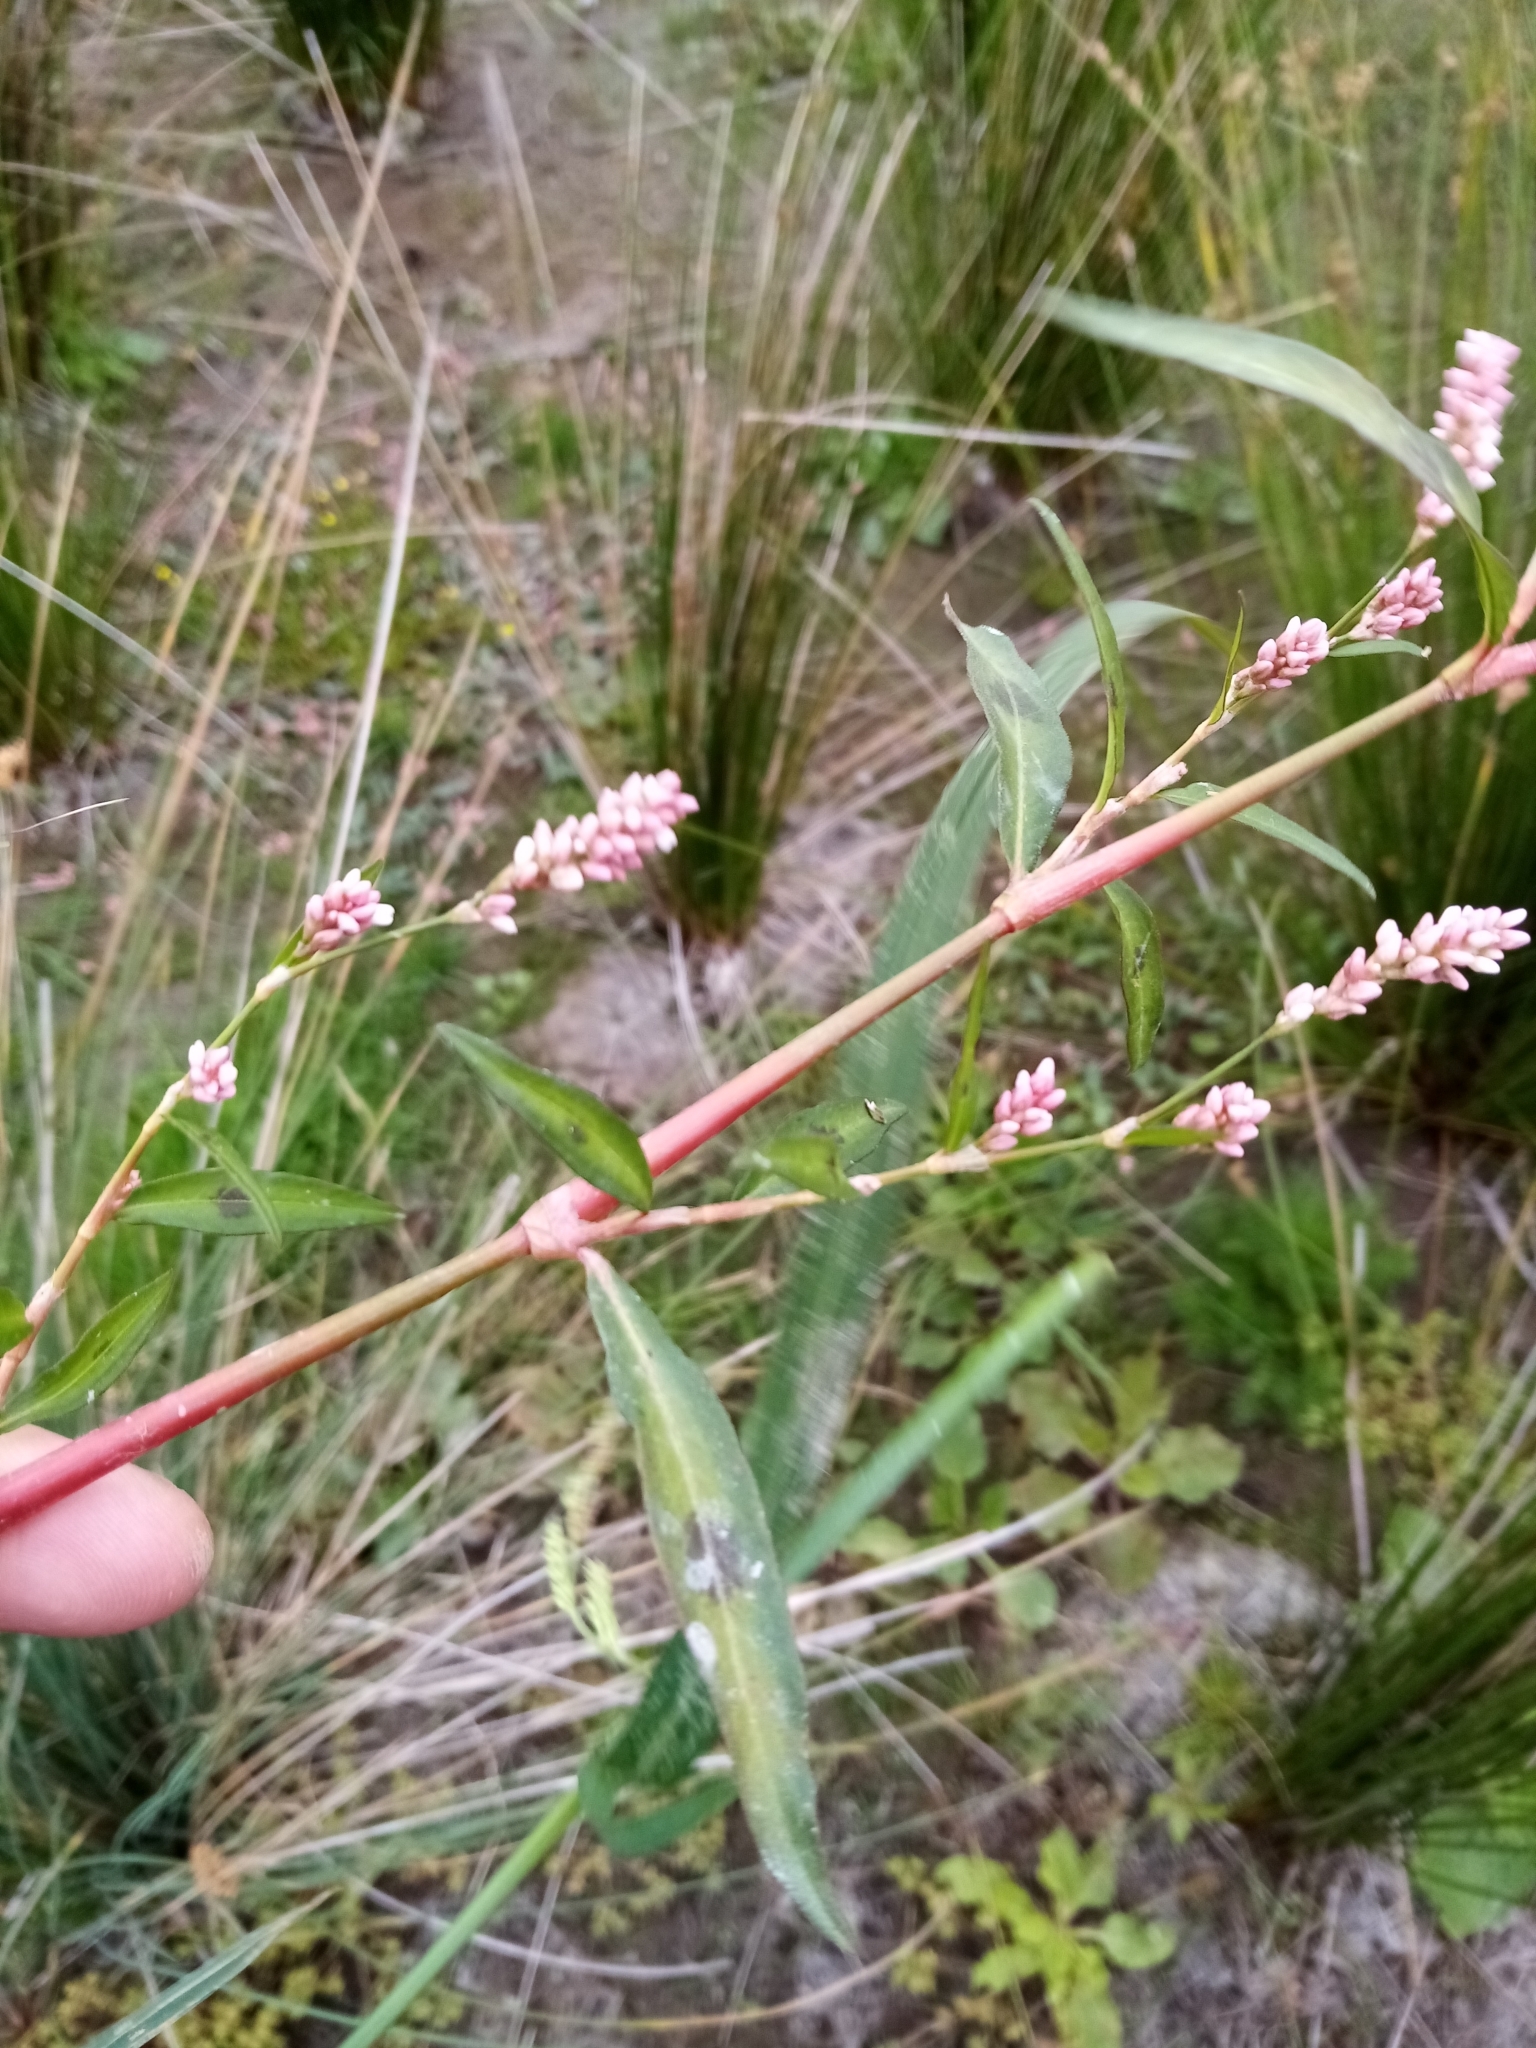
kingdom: Plantae
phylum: Tracheophyta
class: Magnoliopsida
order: Caryophyllales
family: Polygonaceae
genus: Persicaria
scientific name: Persicaria maculosa
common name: Redshank
